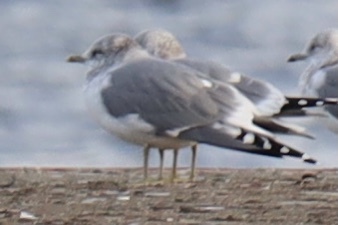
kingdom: Animalia
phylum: Chordata
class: Aves
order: Charadriiformes
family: Laridae
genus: Larus
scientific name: Larus brachyrhynchus
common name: Short-billed gull
